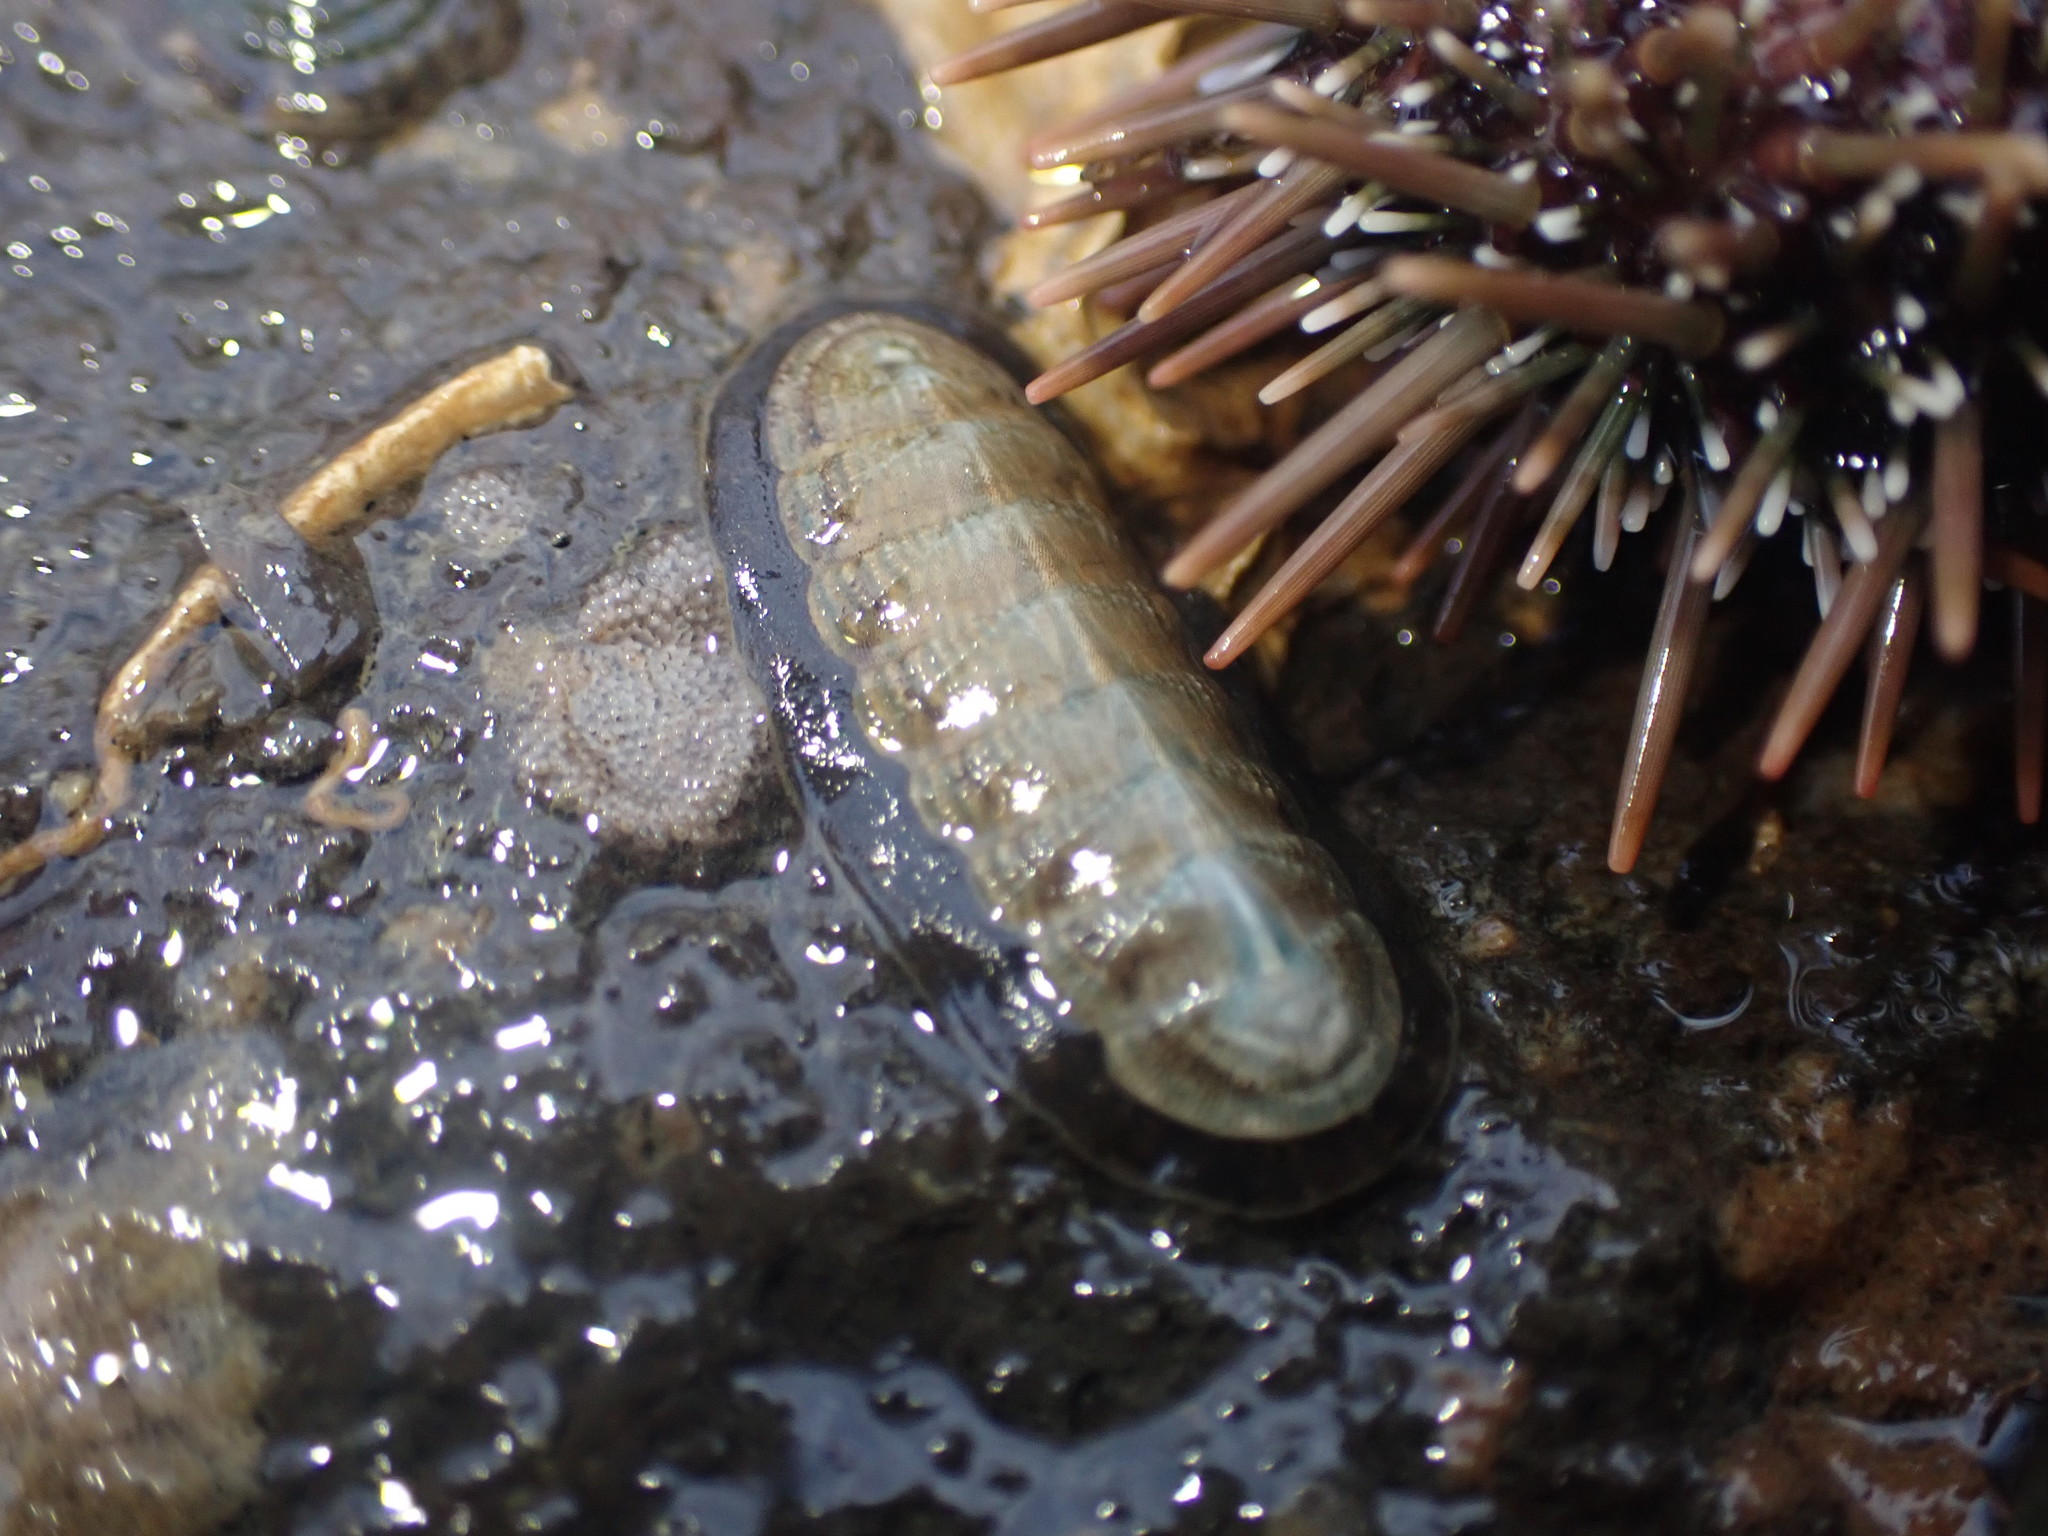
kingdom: Animalia
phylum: Mollusca
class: Polyplacophora
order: Chitonida
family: Ischnochitonidae
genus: Ischnochiton
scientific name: Ischnochiton maorianus
